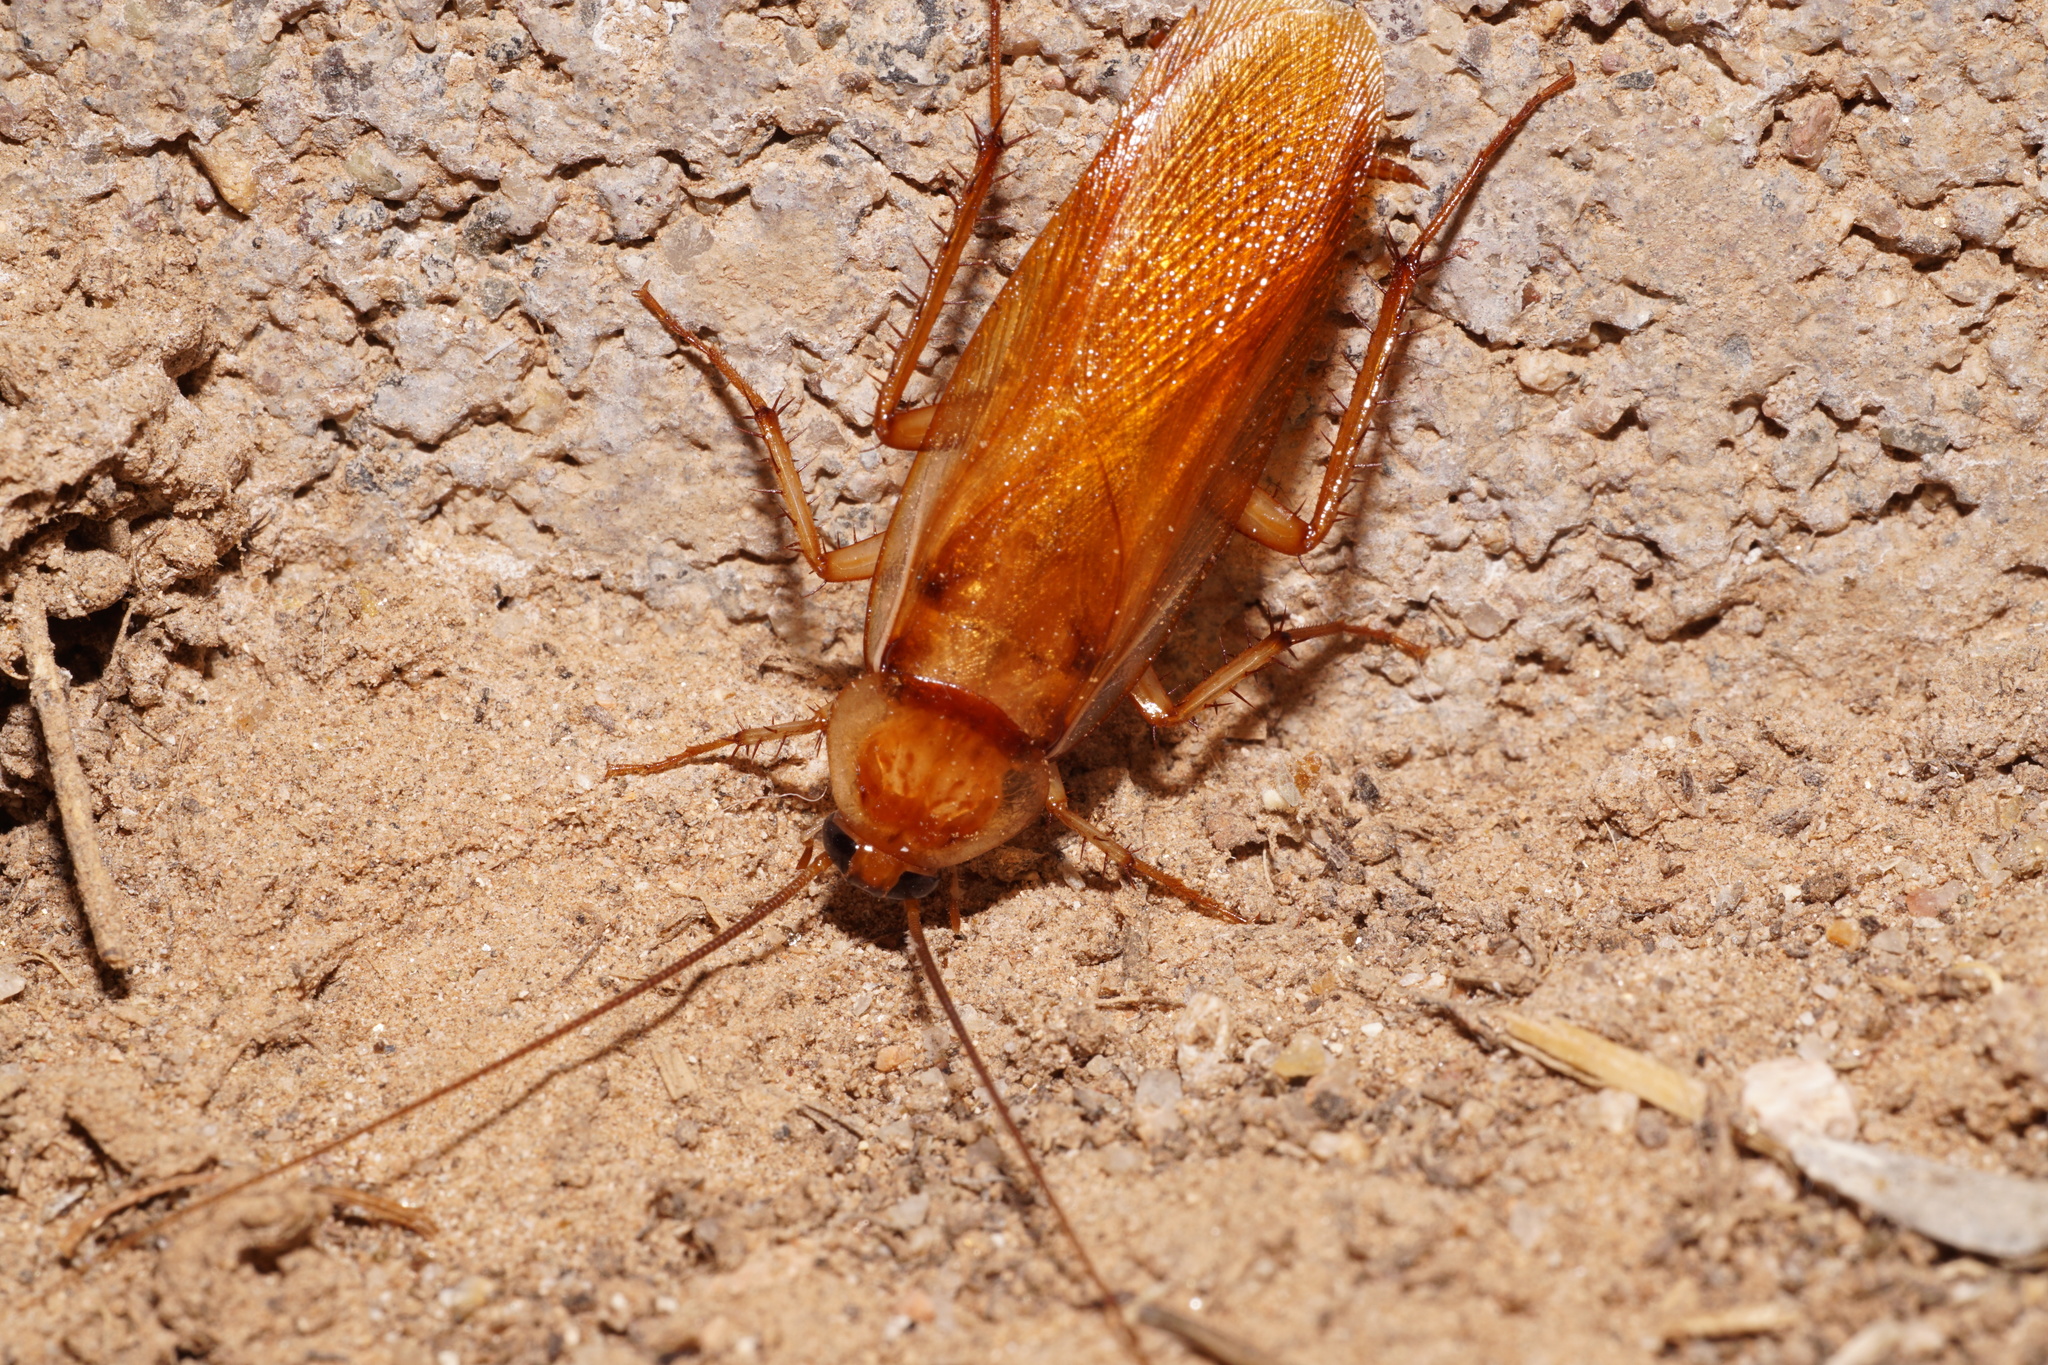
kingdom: Animalia
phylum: Arthropoda
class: Insecta
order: Blattodea
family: Blattidae
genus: Periplaneta
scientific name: Periplaneta lateralis
